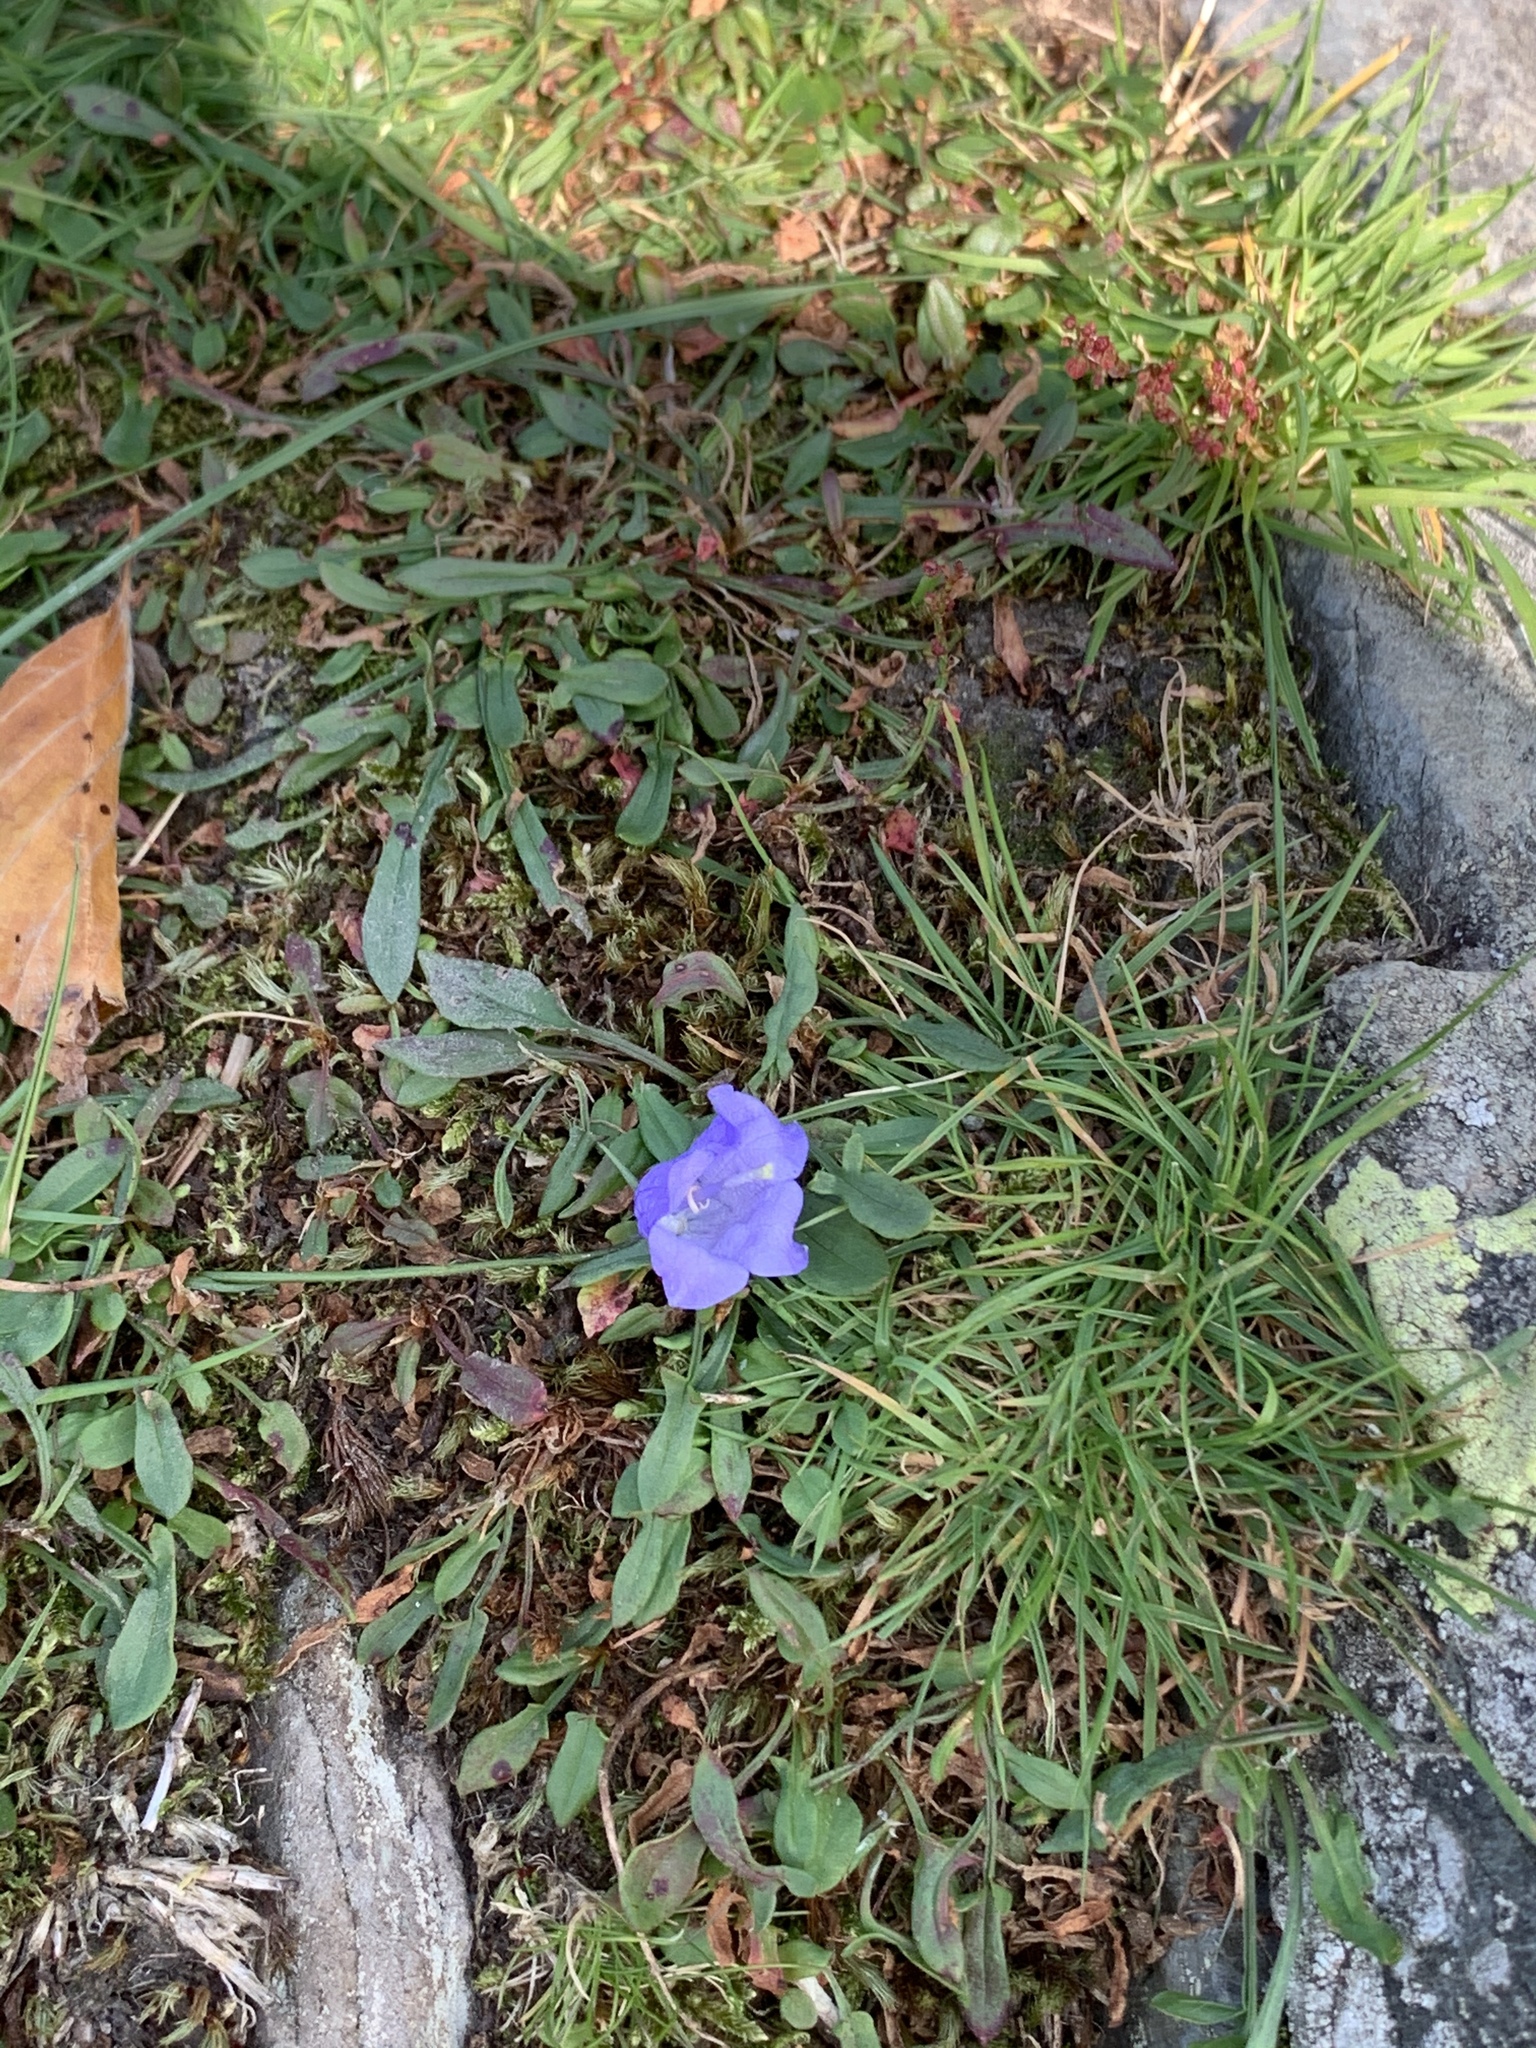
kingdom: Plantae
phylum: Tracheophyta
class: Magnoliopsida
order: Asterales
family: Campanulaceae
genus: Campanula
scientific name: Campanula rotundifolia
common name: Harebell
